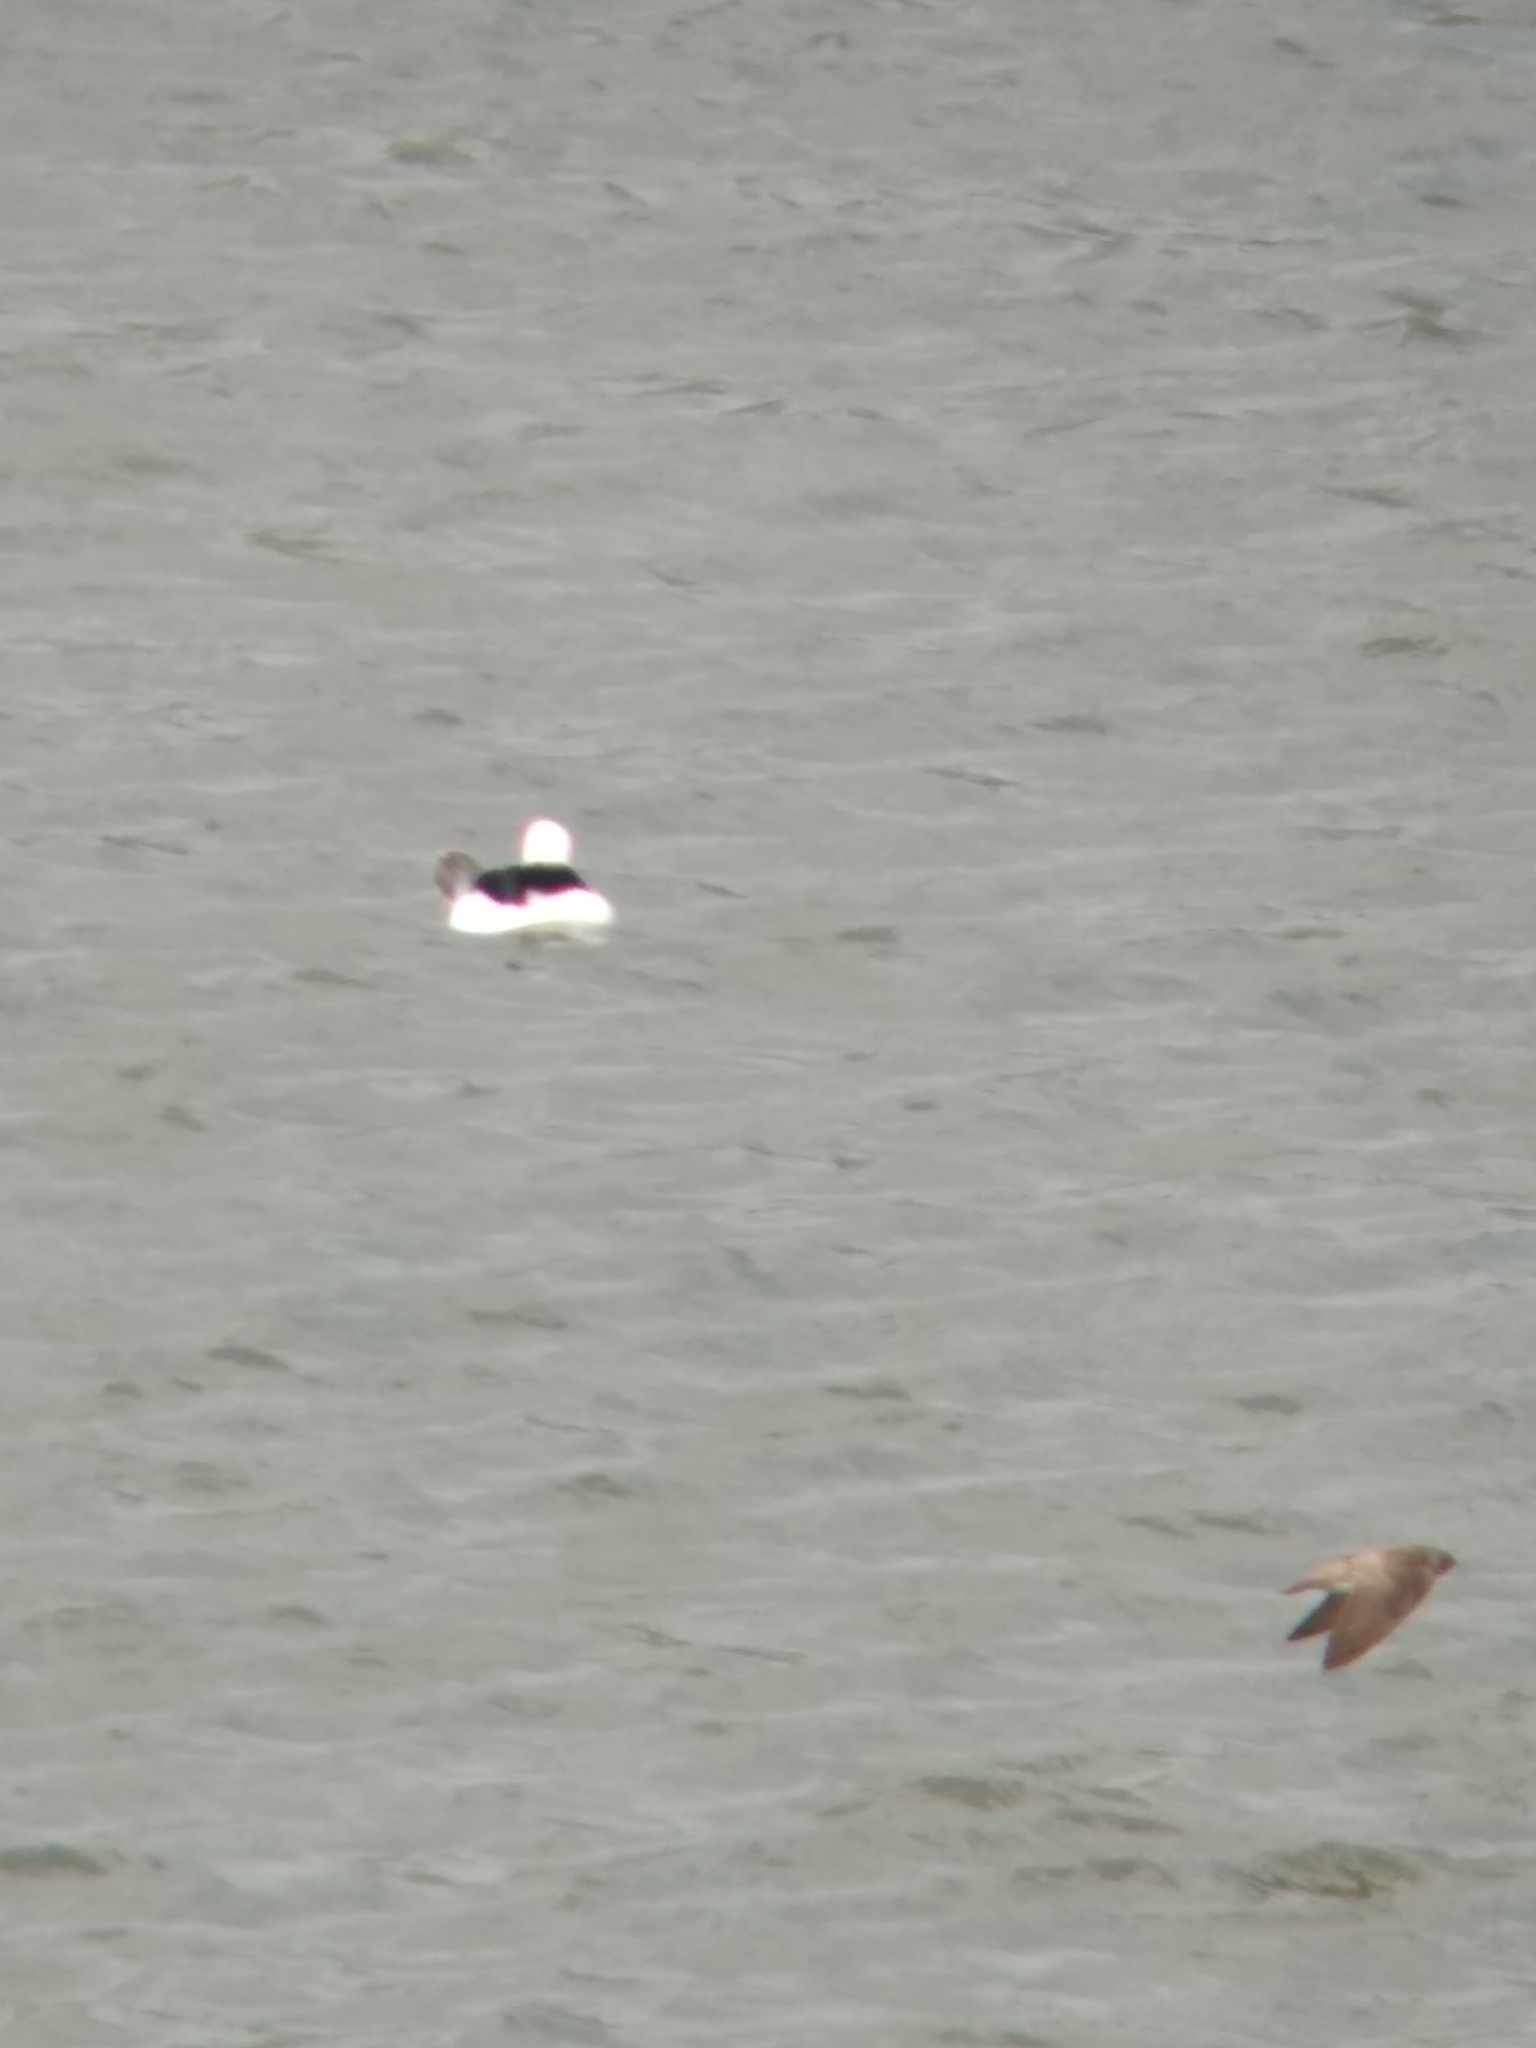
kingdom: Animalia
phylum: Chordata
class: Aves
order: Passeriformes
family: Hirundinidae
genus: Stelgidopteryx
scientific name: Stelgidopteryx serripennis
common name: Northern rough-winged swallow
